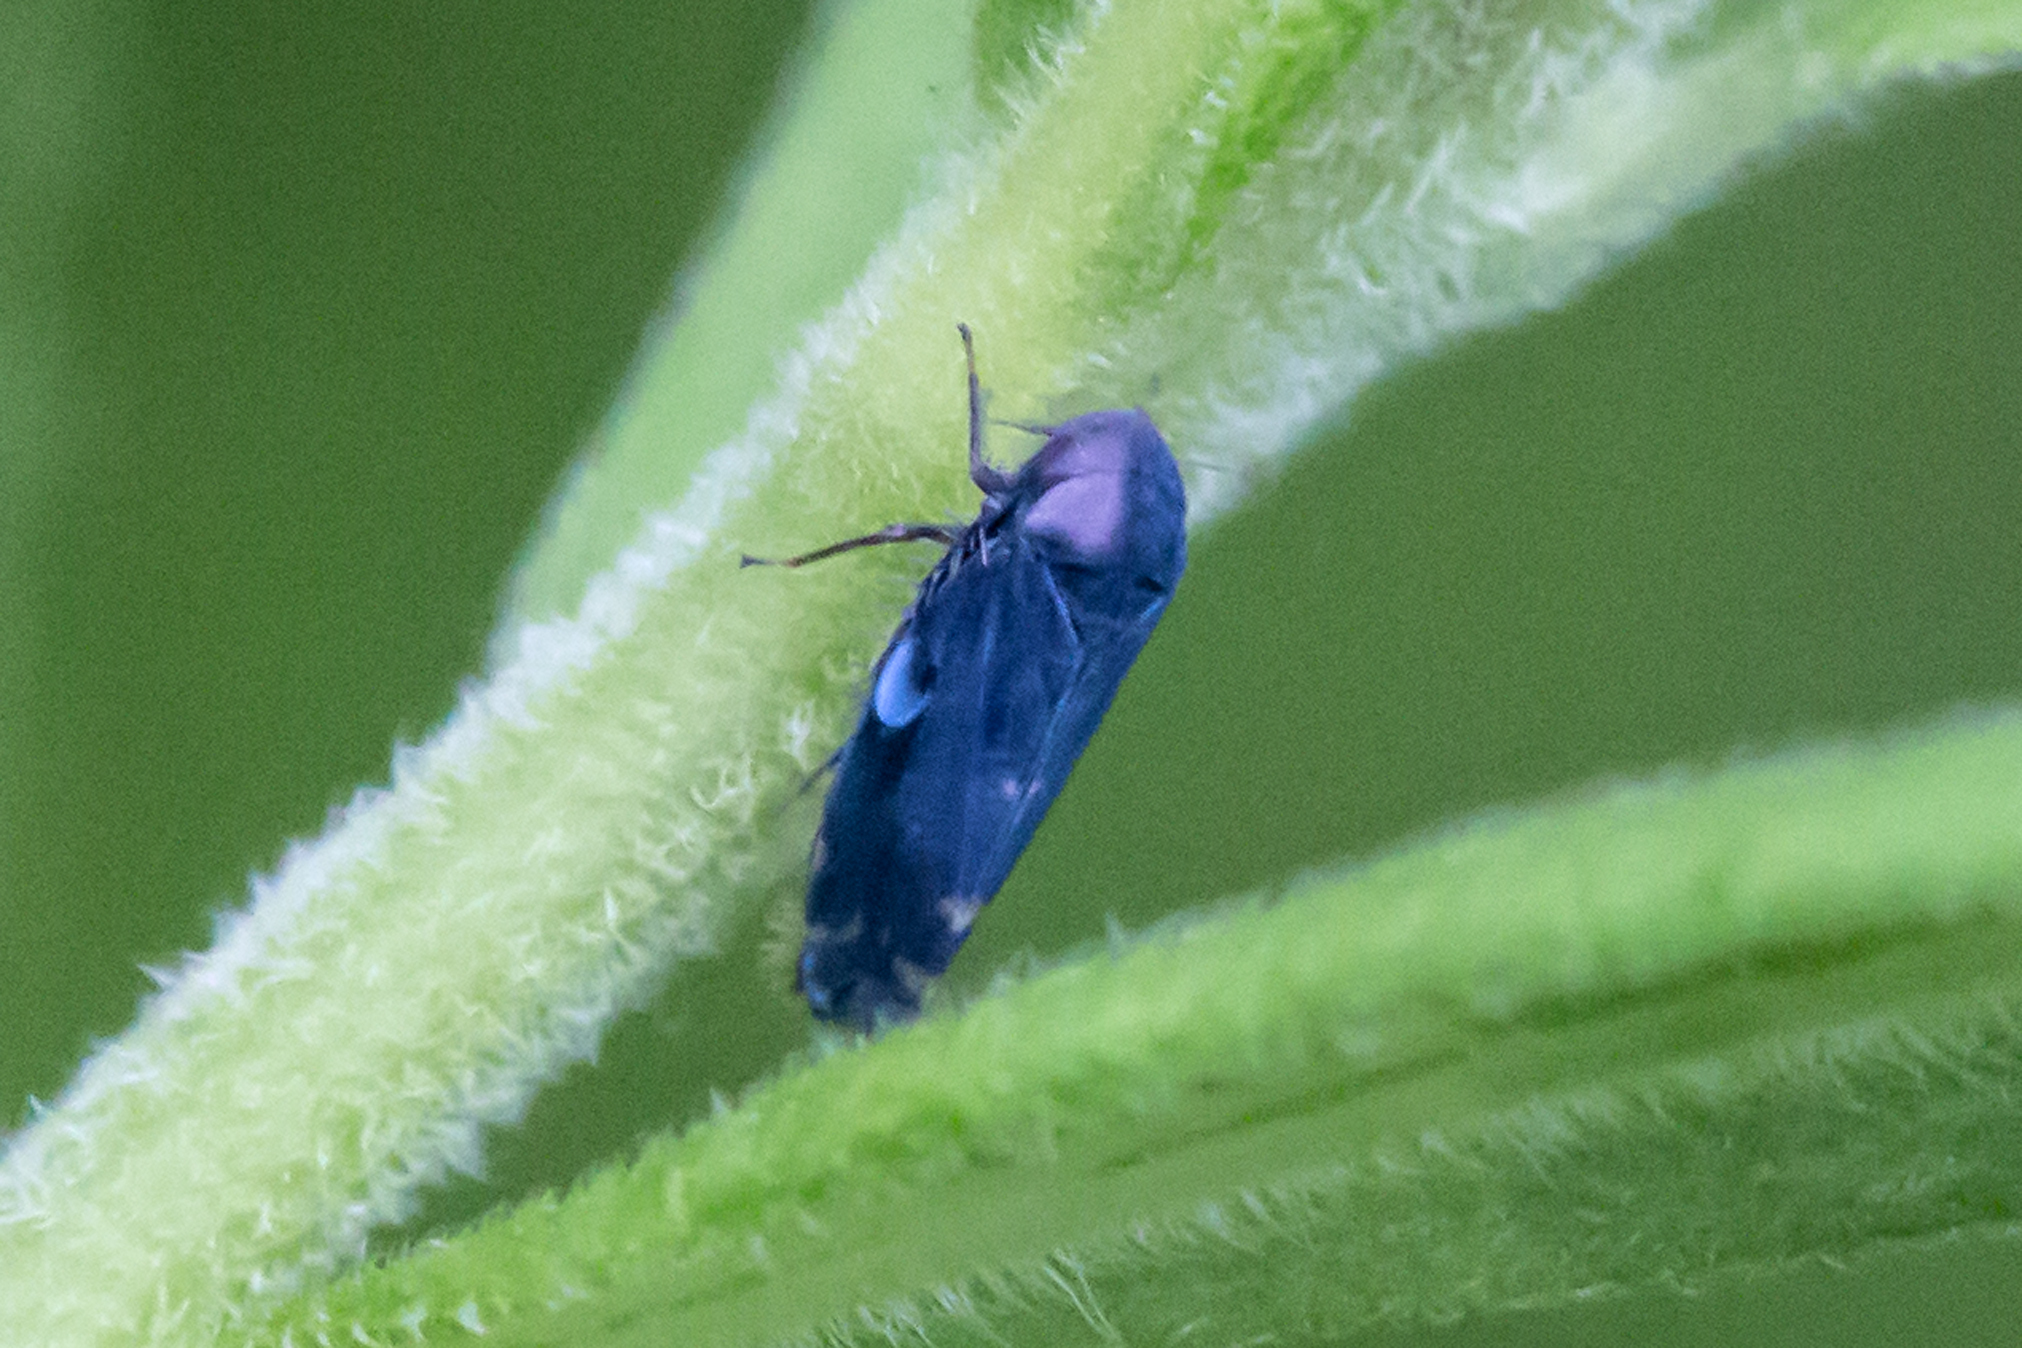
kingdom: Animalia
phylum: Arthropoda
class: Insecta
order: Hemiptera
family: Cicadellidae
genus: Xestocephalus
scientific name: Xestocephalus desertorum
